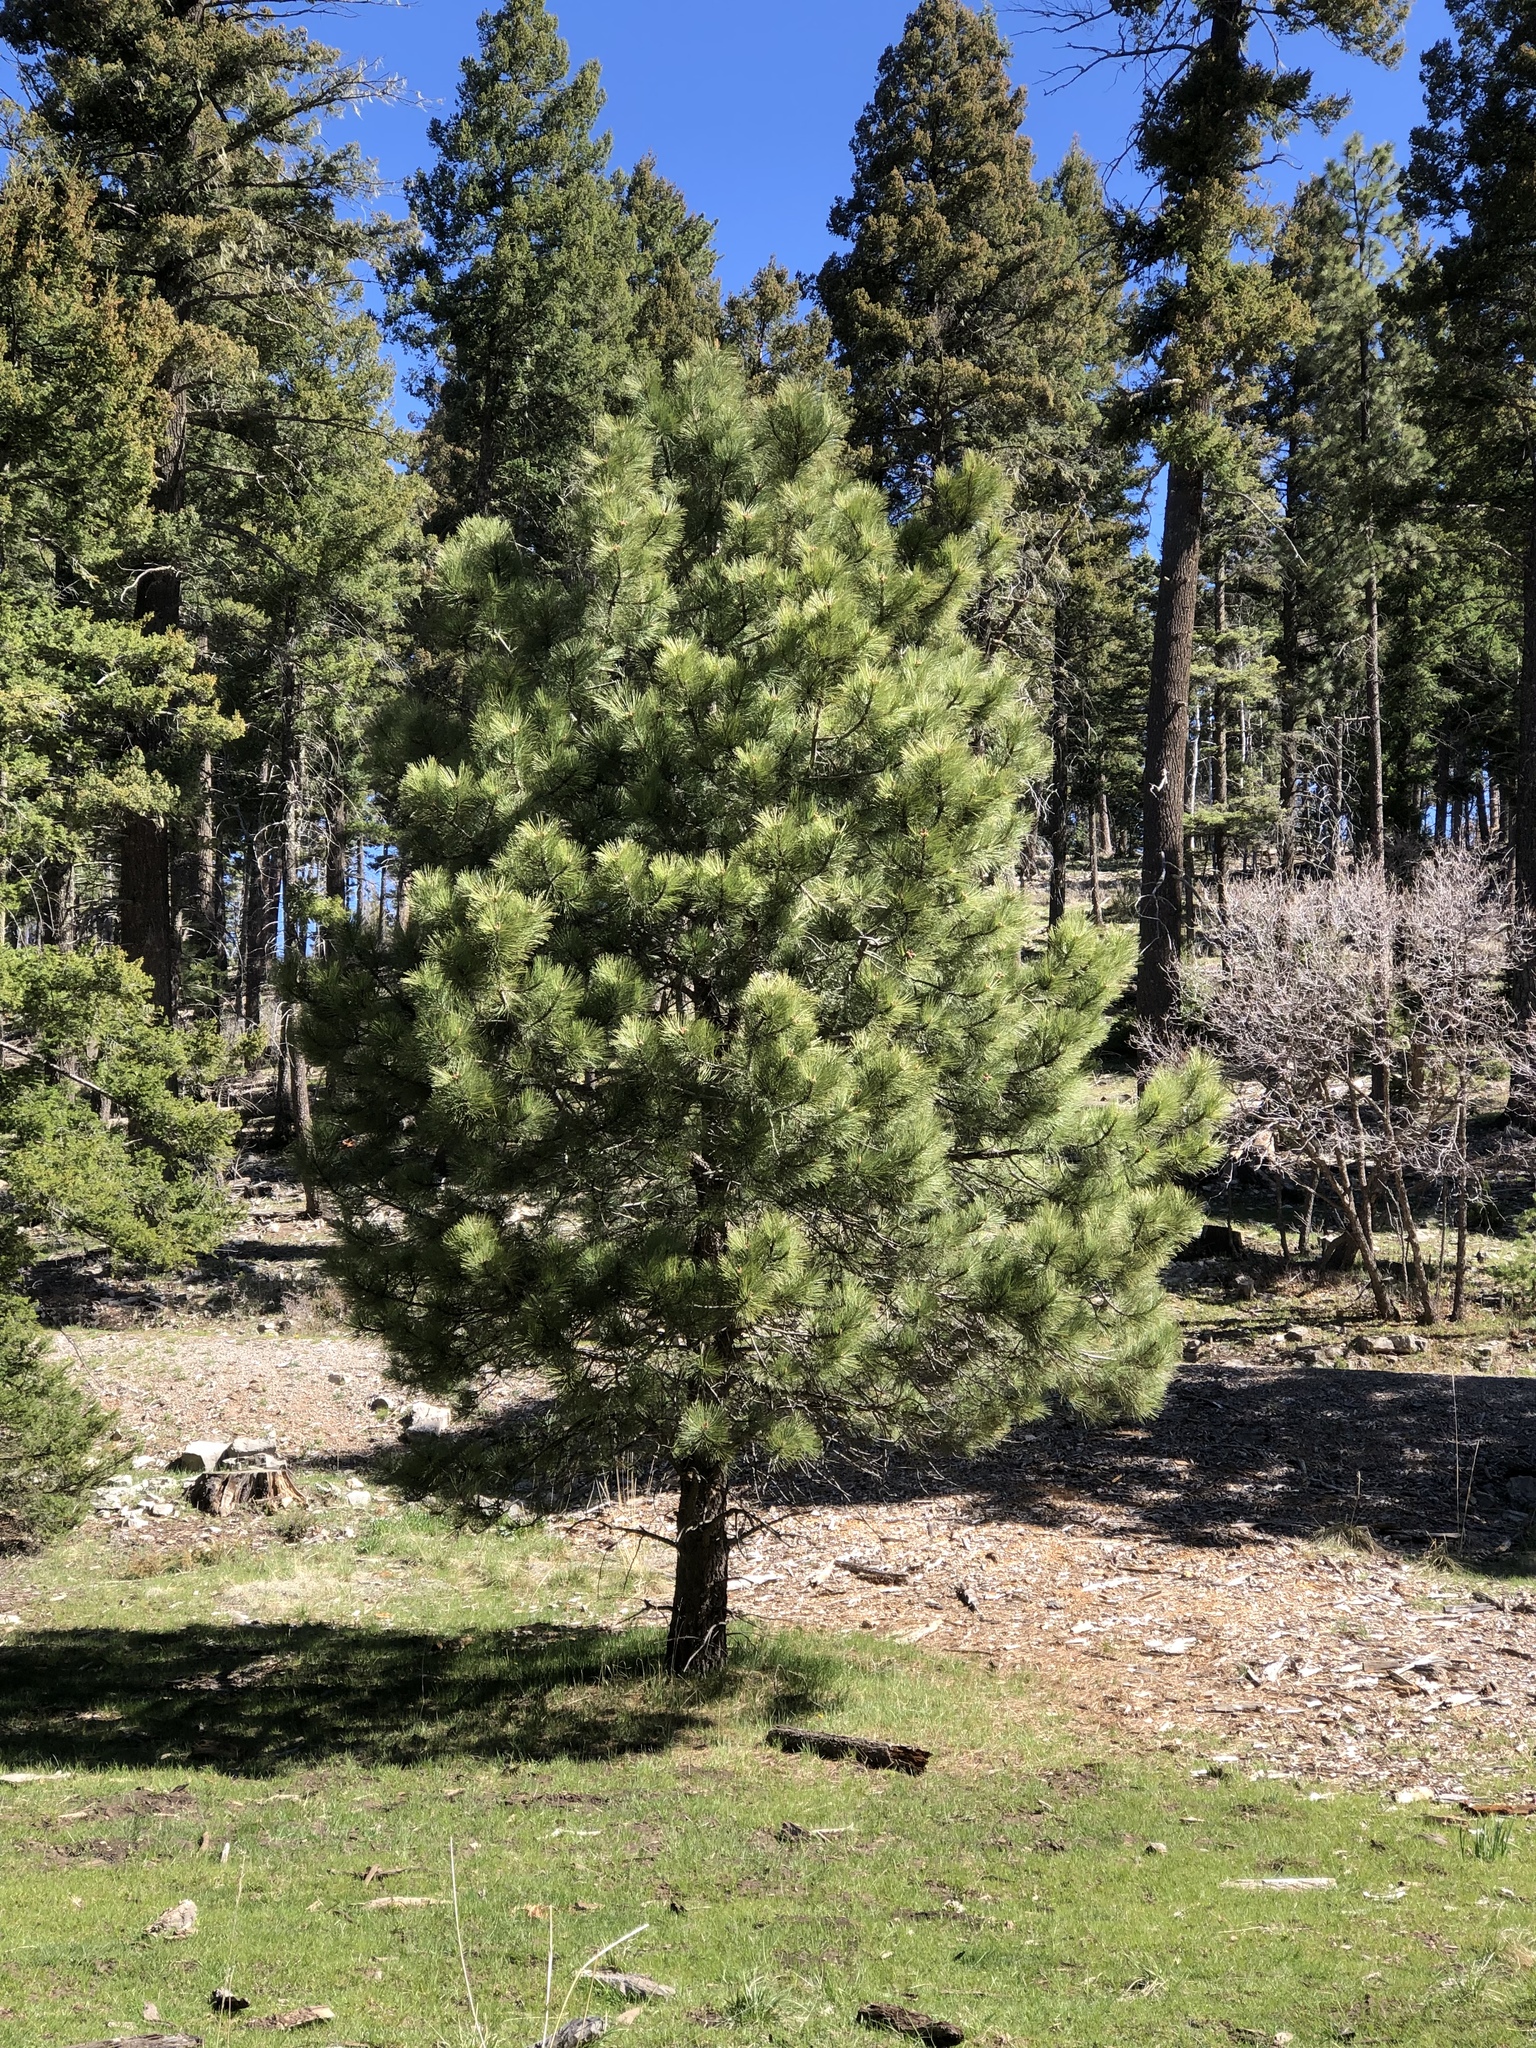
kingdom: Plantae
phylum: Tracheophyta
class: Pinopsida
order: Pinales
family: Pinaceae
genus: Pinus
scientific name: Pinus ponderosa
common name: Western yellow-pine
